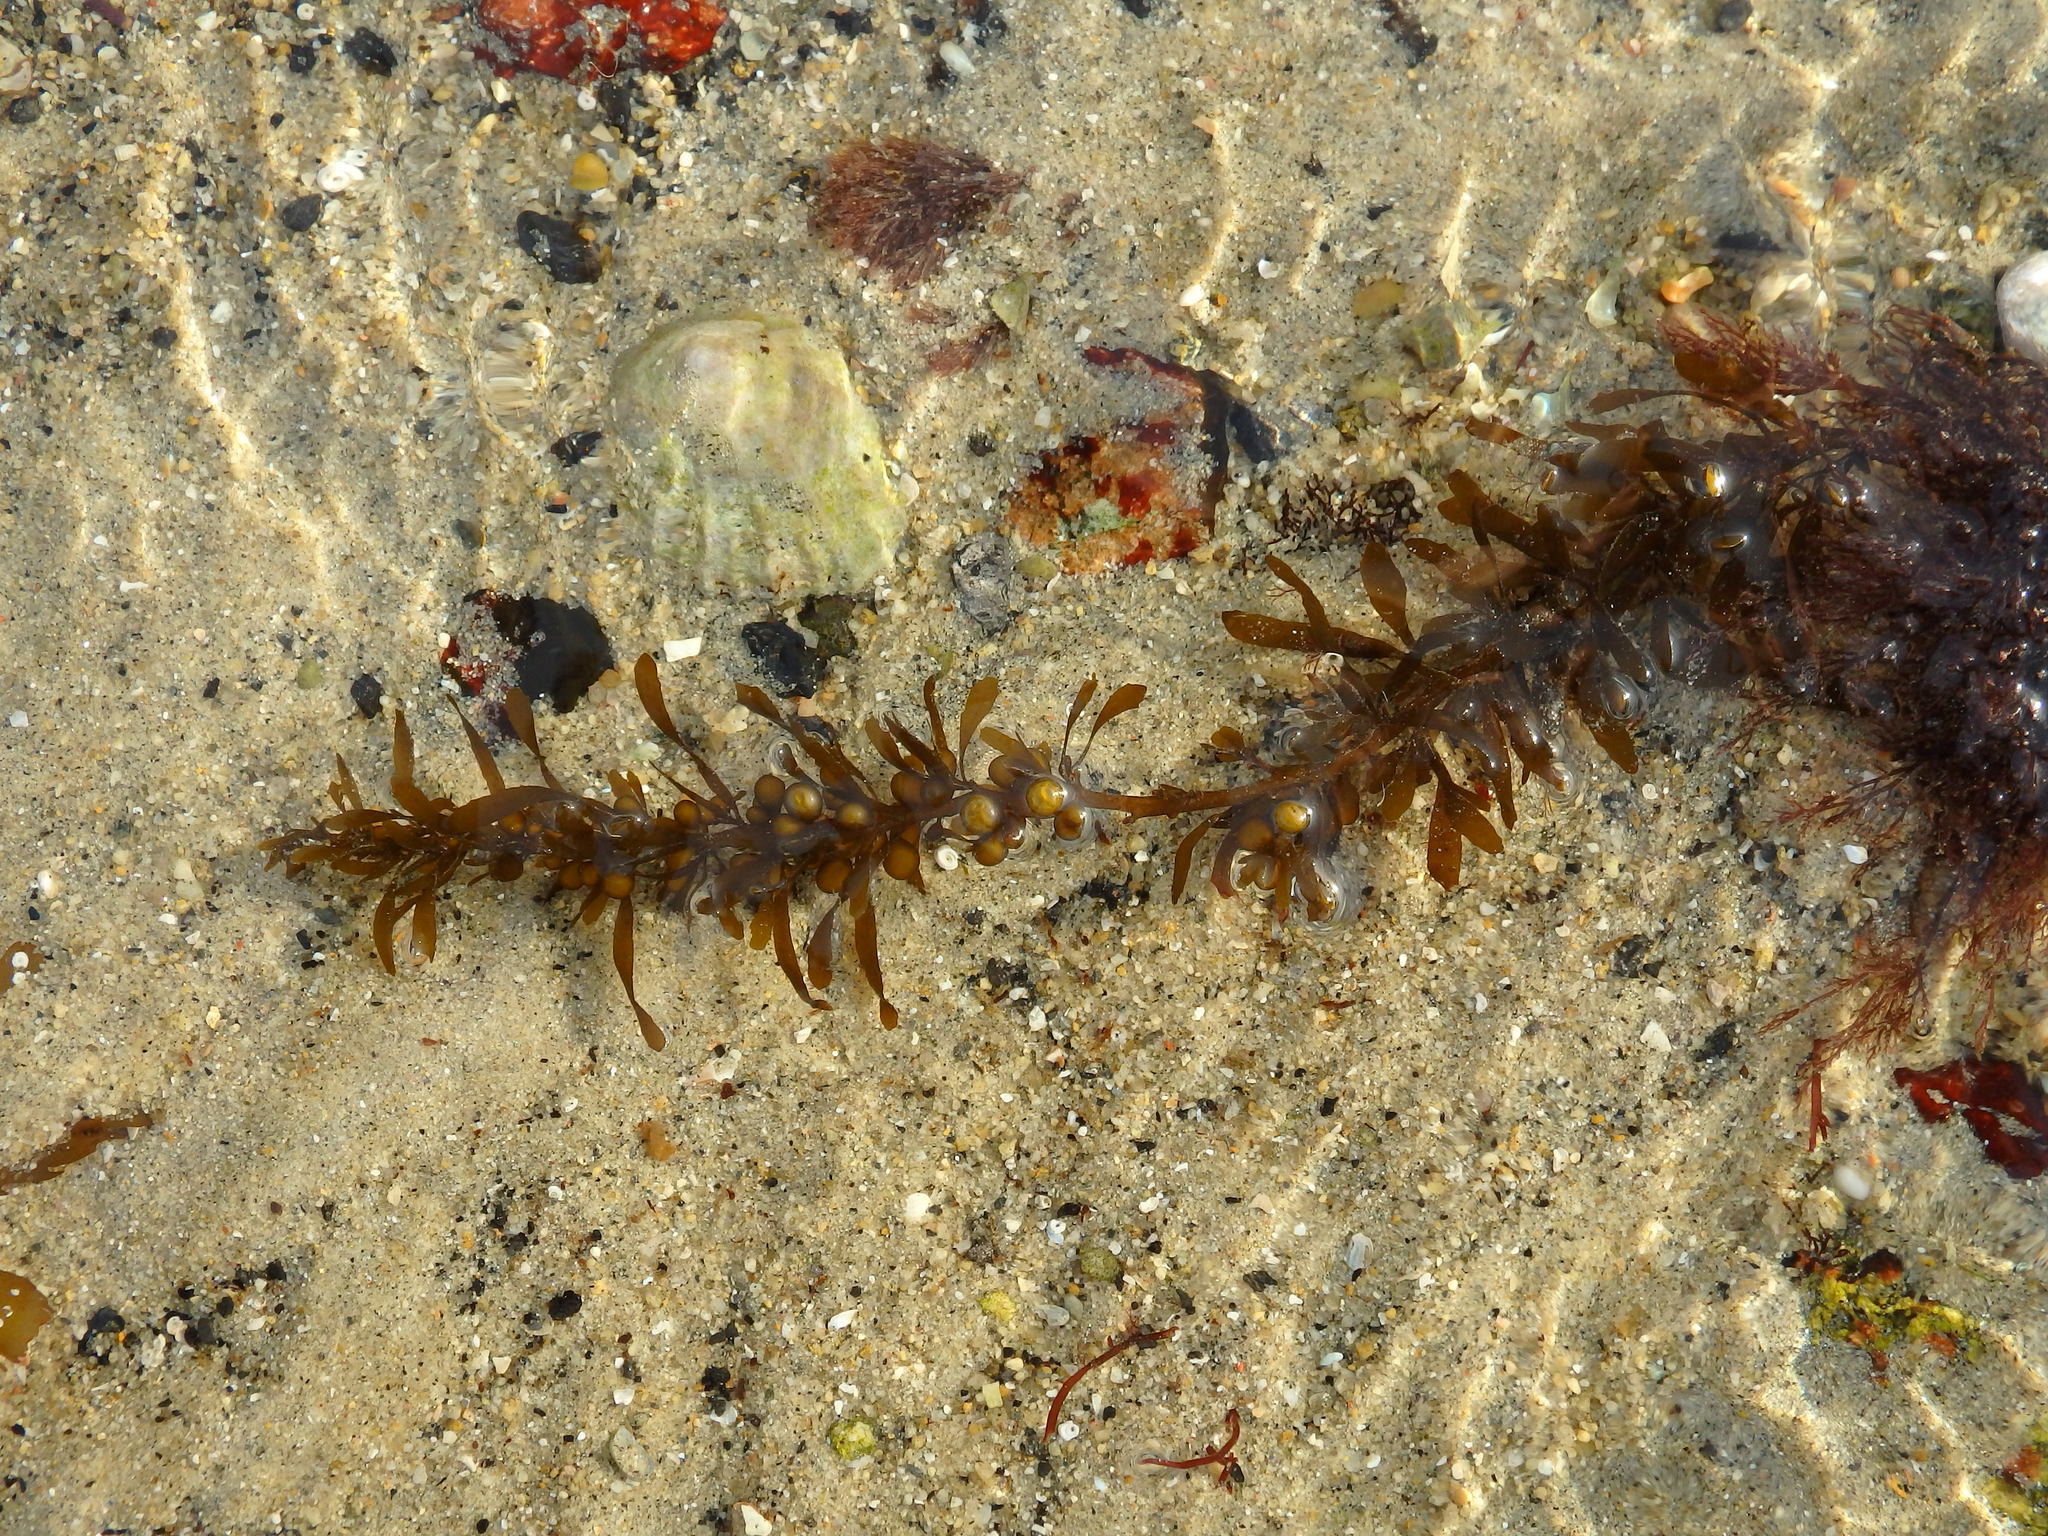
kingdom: Chromista
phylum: Ochrophyta
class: Phaeophyceae
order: Fucales
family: Sargassaceae
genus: Sargassum
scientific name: Sargassum muticum
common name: Japweed
